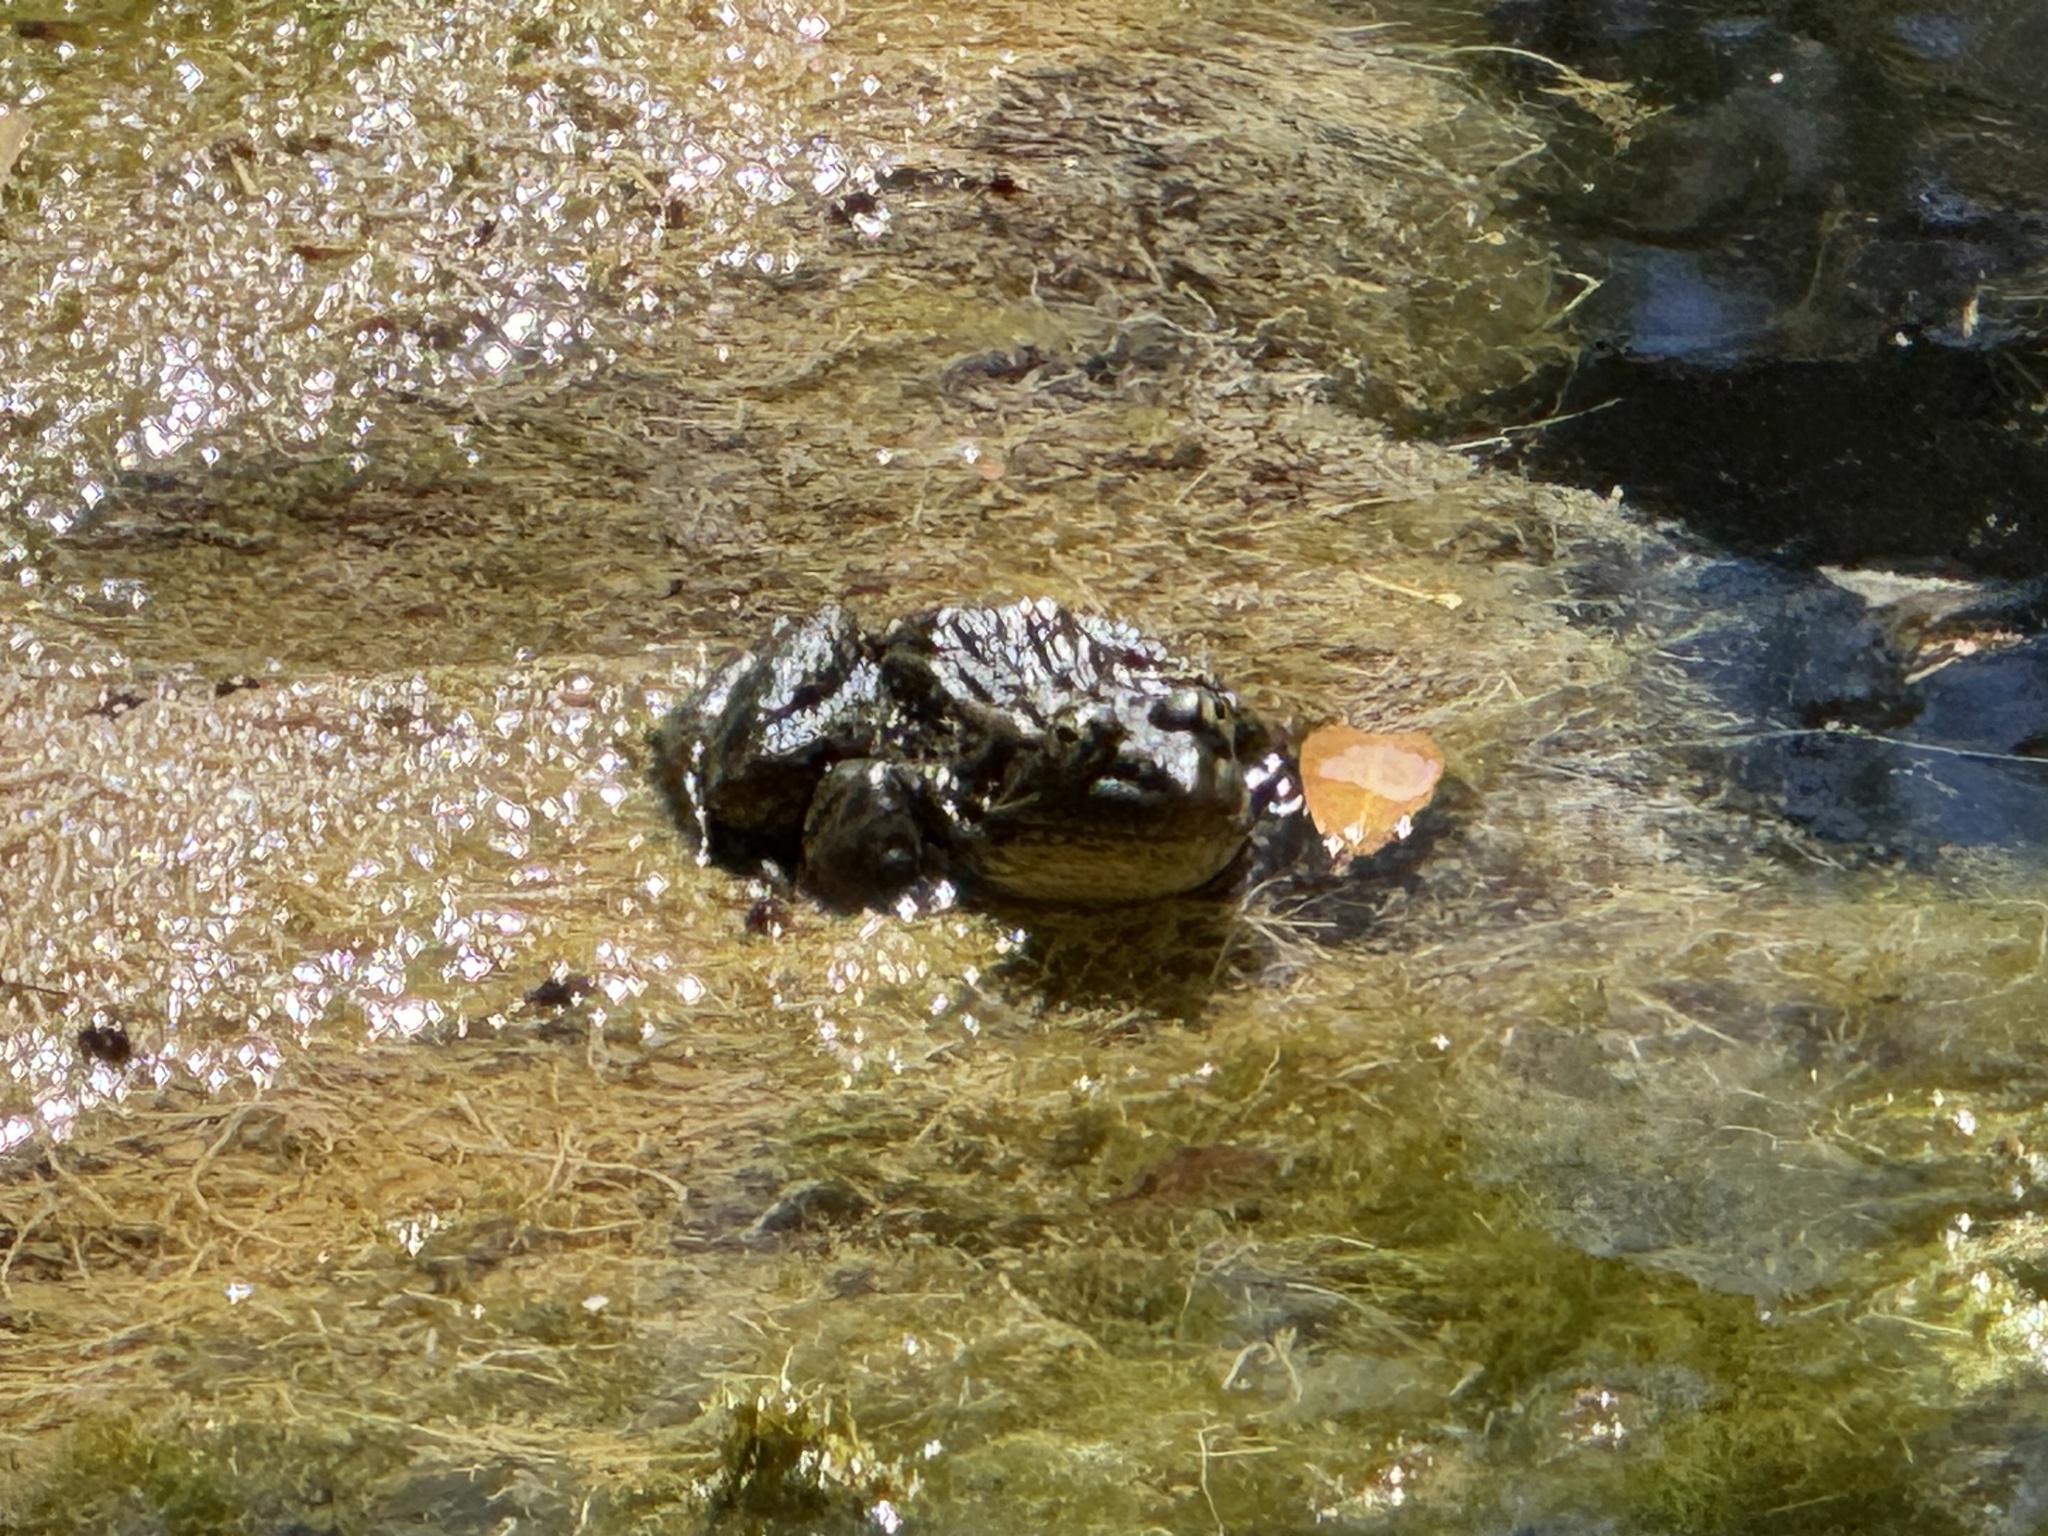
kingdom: Animalia
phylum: Chordata
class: Amphibia
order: Anura
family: Ranidae
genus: Lithobates
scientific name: Lithobates chiricahuensis
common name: Chiricahua leopard frog
